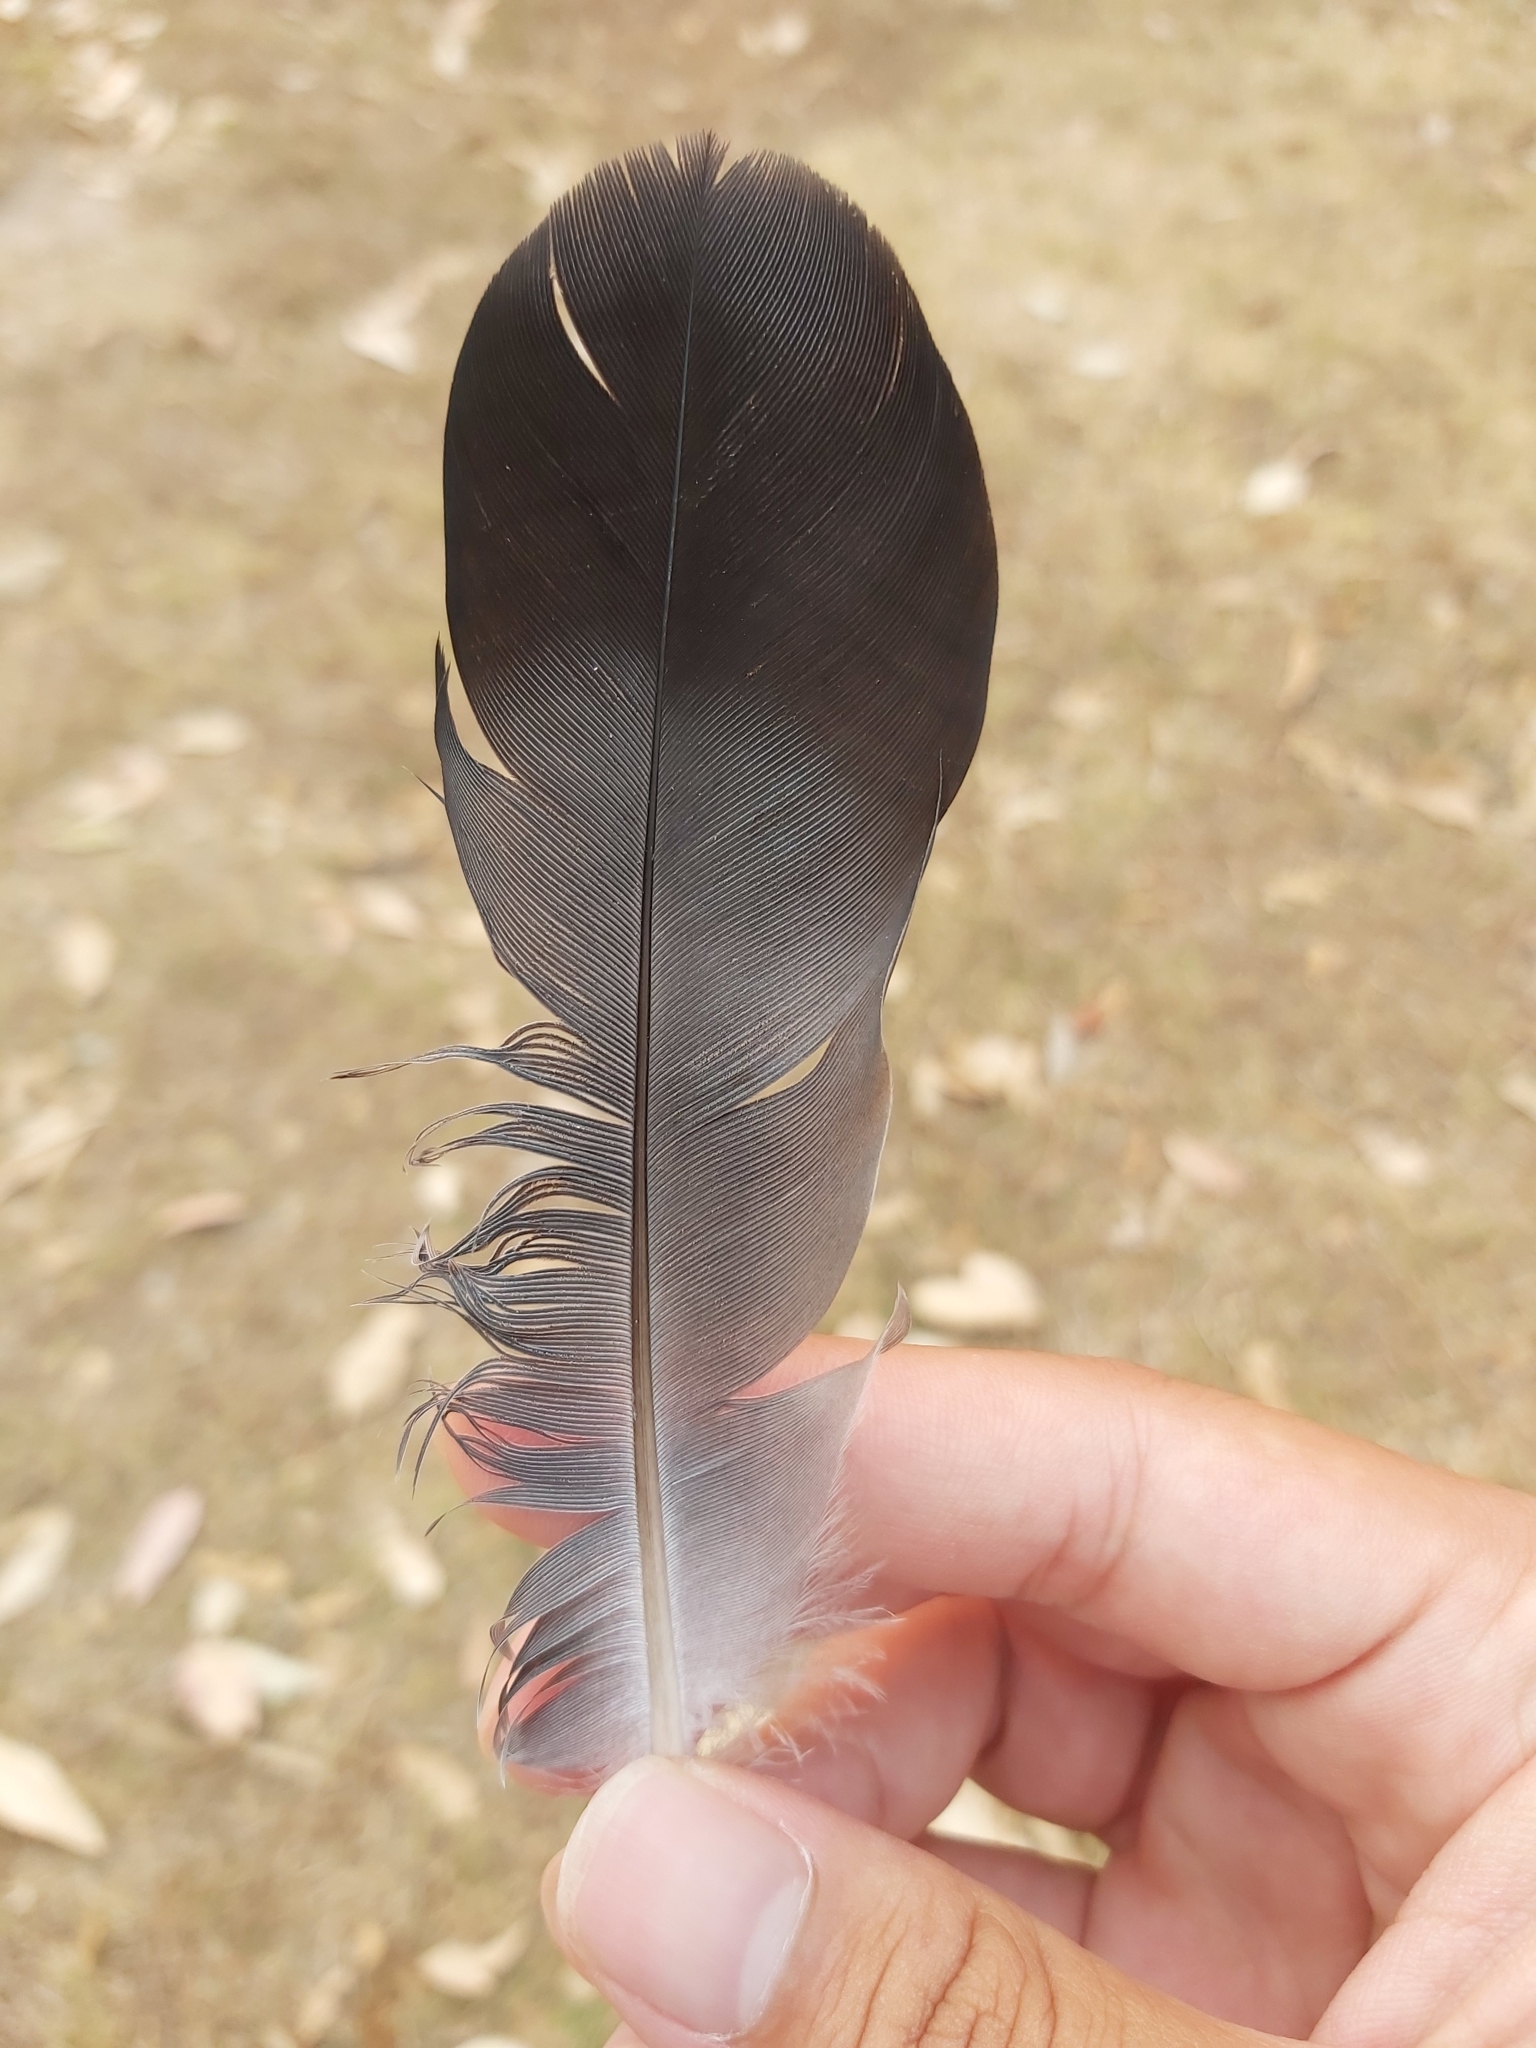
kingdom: Animalia
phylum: Chordata
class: Aves
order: Columbiformes
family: Columbidae
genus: Columba
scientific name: Columba livia
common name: Rock pigeon
